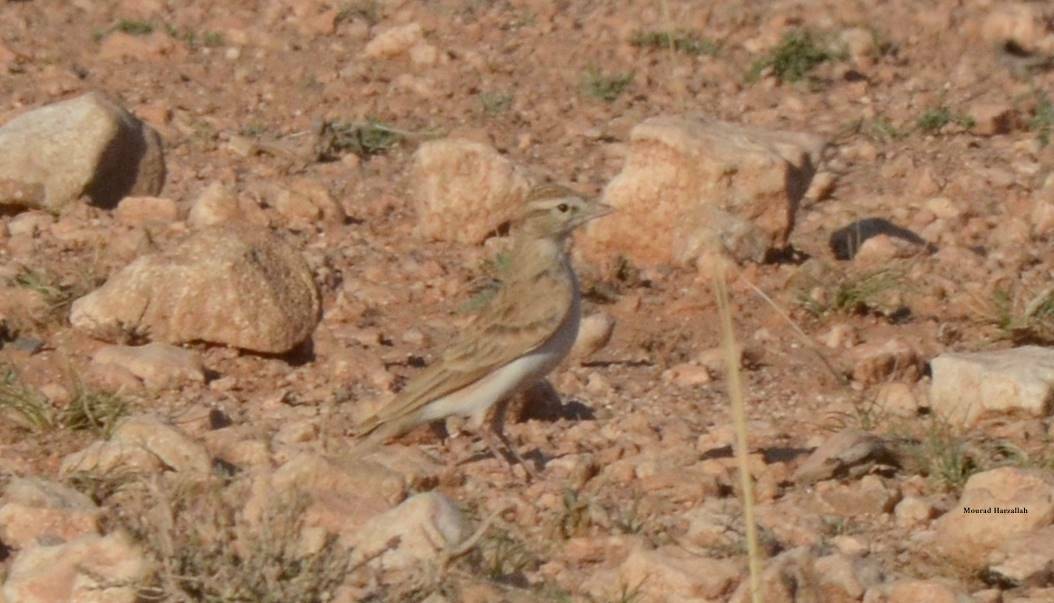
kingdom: Animalia
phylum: Chordata
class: Aves
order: Passeriformes
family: Alaudidae
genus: Calandrella
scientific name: Calandrella brachydactyla
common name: Greater short-toed lark
